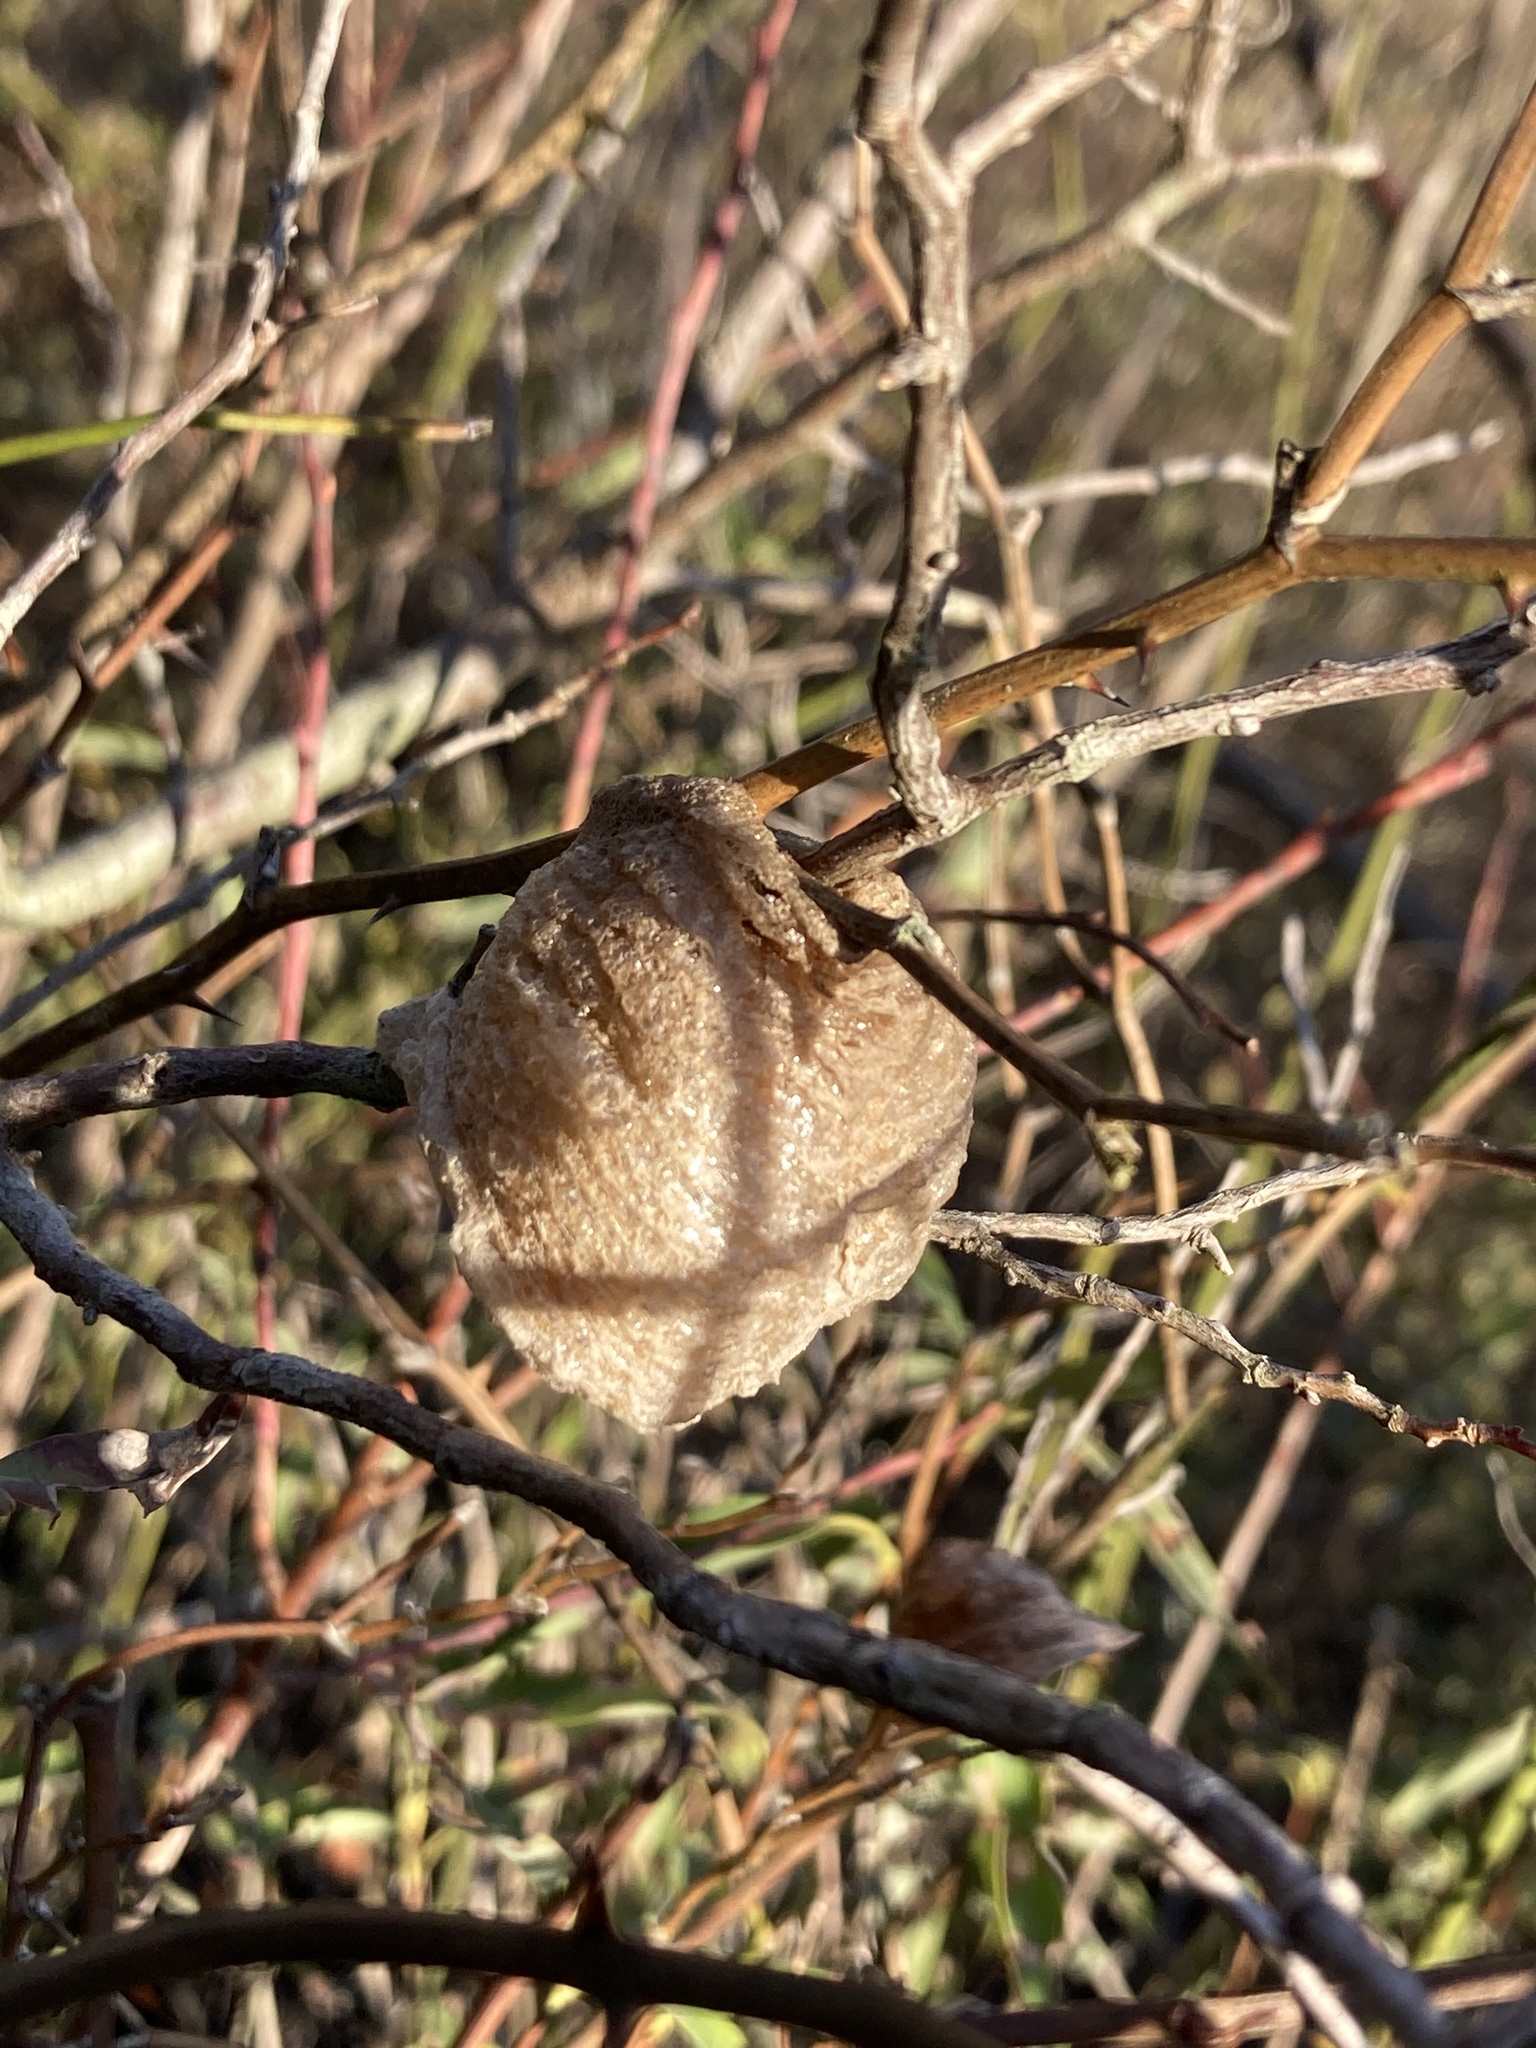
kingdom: Animalia
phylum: Arthropoda
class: Insecta
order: Mantodea
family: Mantidae
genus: Tenodera
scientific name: Tenodera sinensis
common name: Chinese mantis
